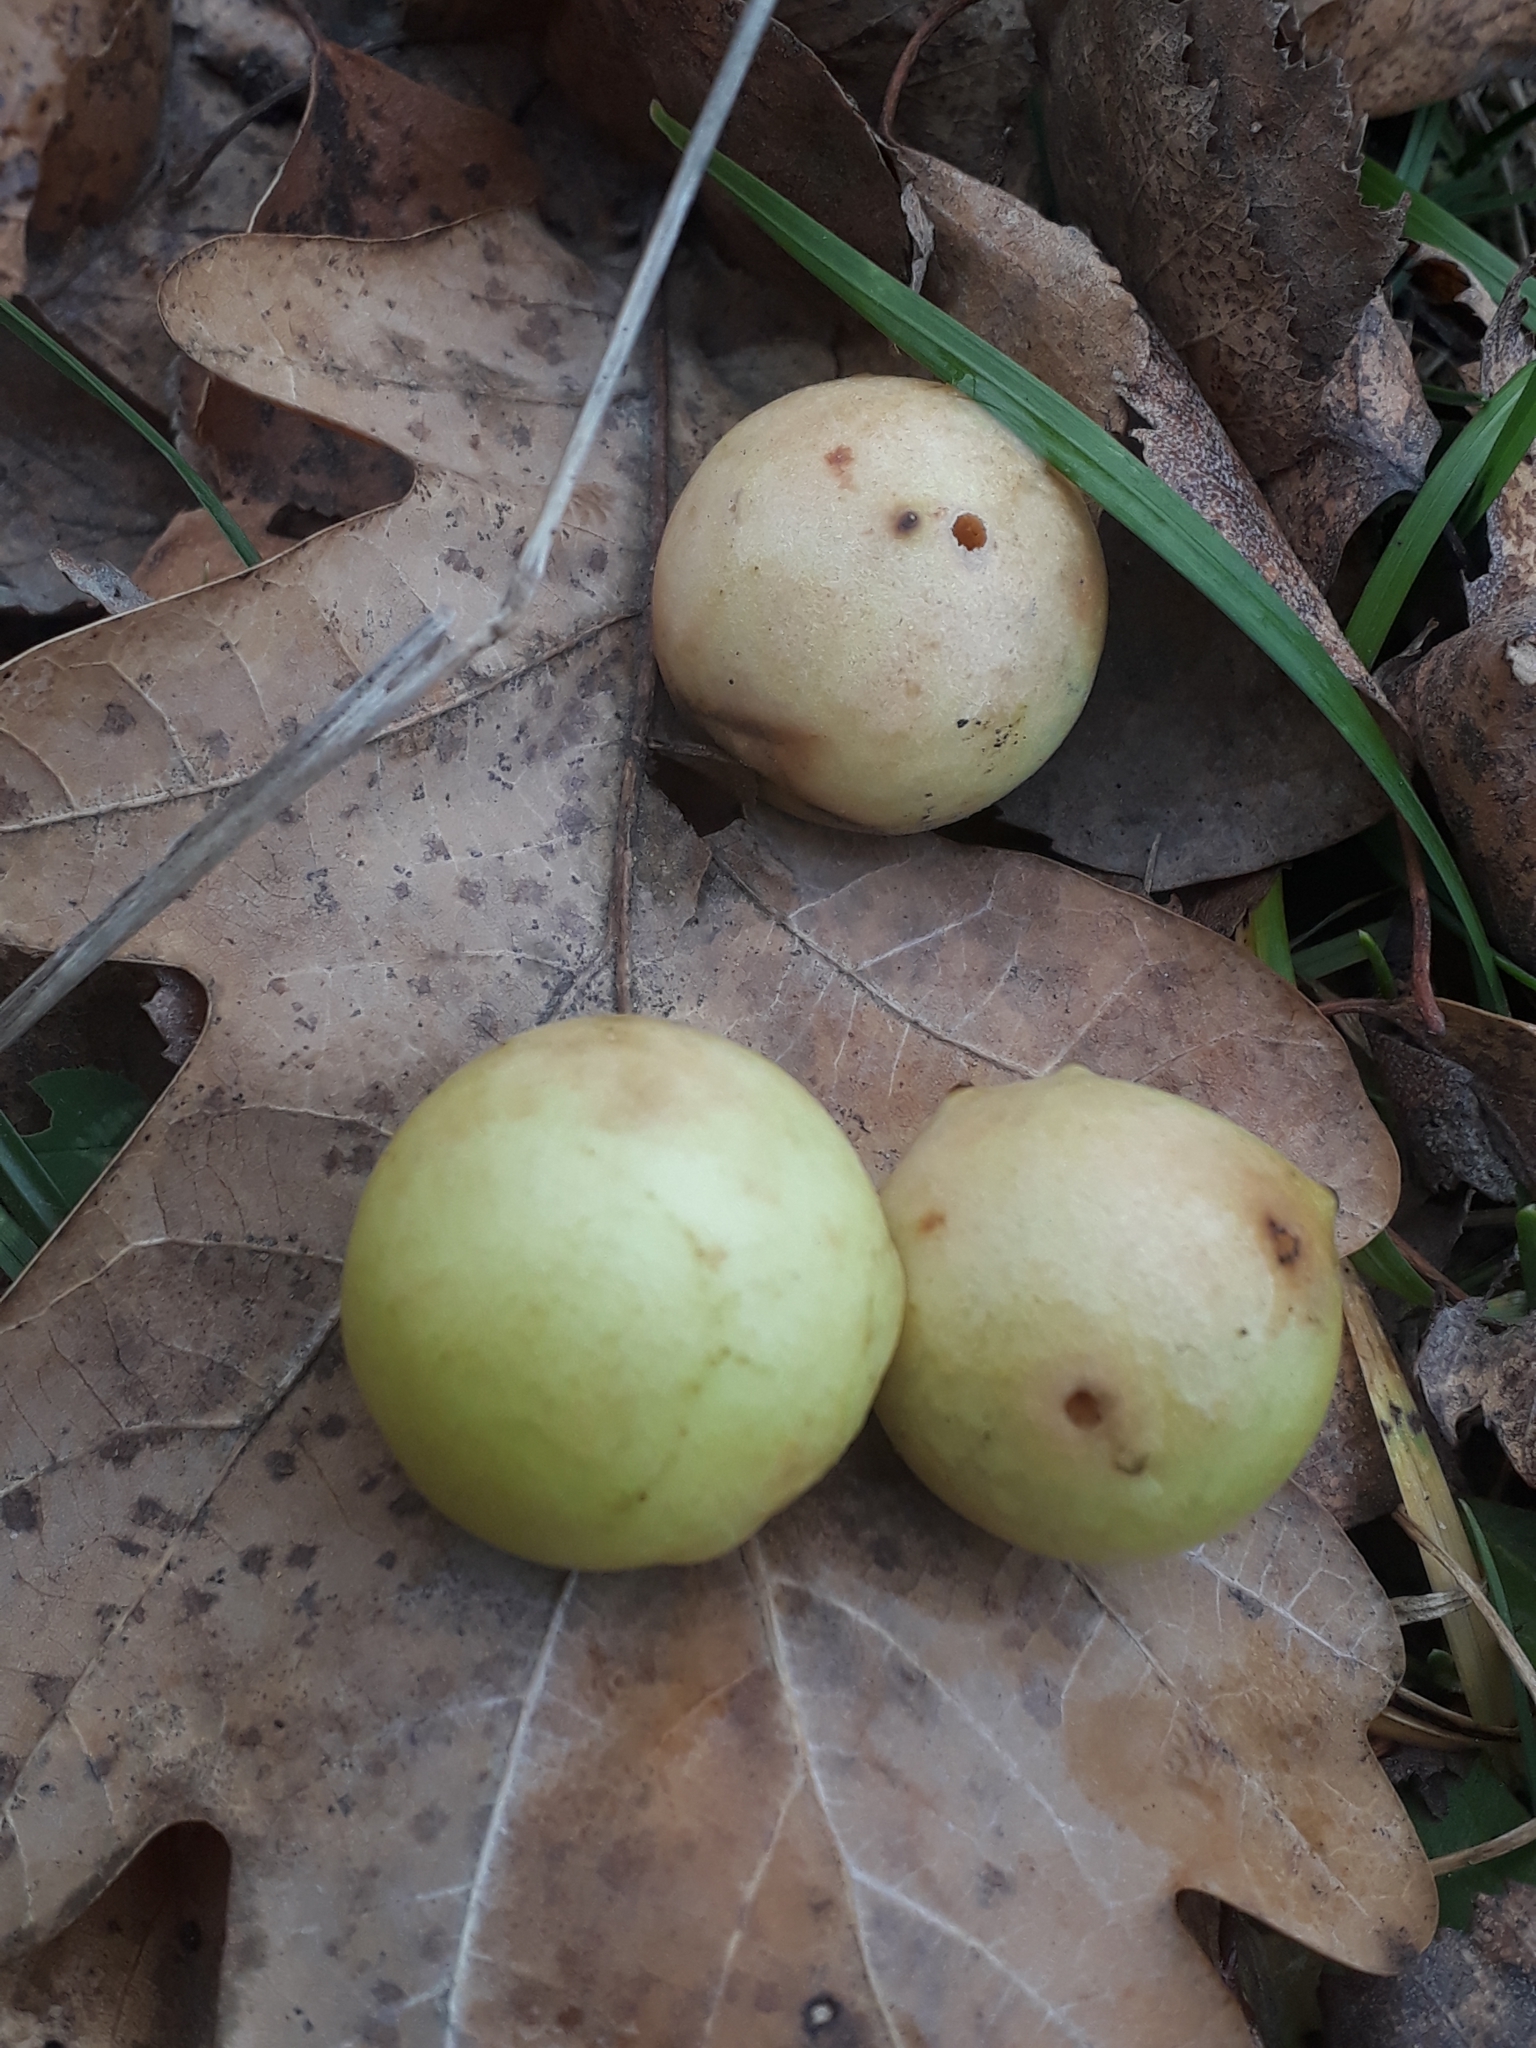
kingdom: Animalia
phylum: Arthropoda
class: Insecta
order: Hymenoptera
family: Cynipidae
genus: Cynips
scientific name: Cynips quercusfolii
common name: Cherry gall
